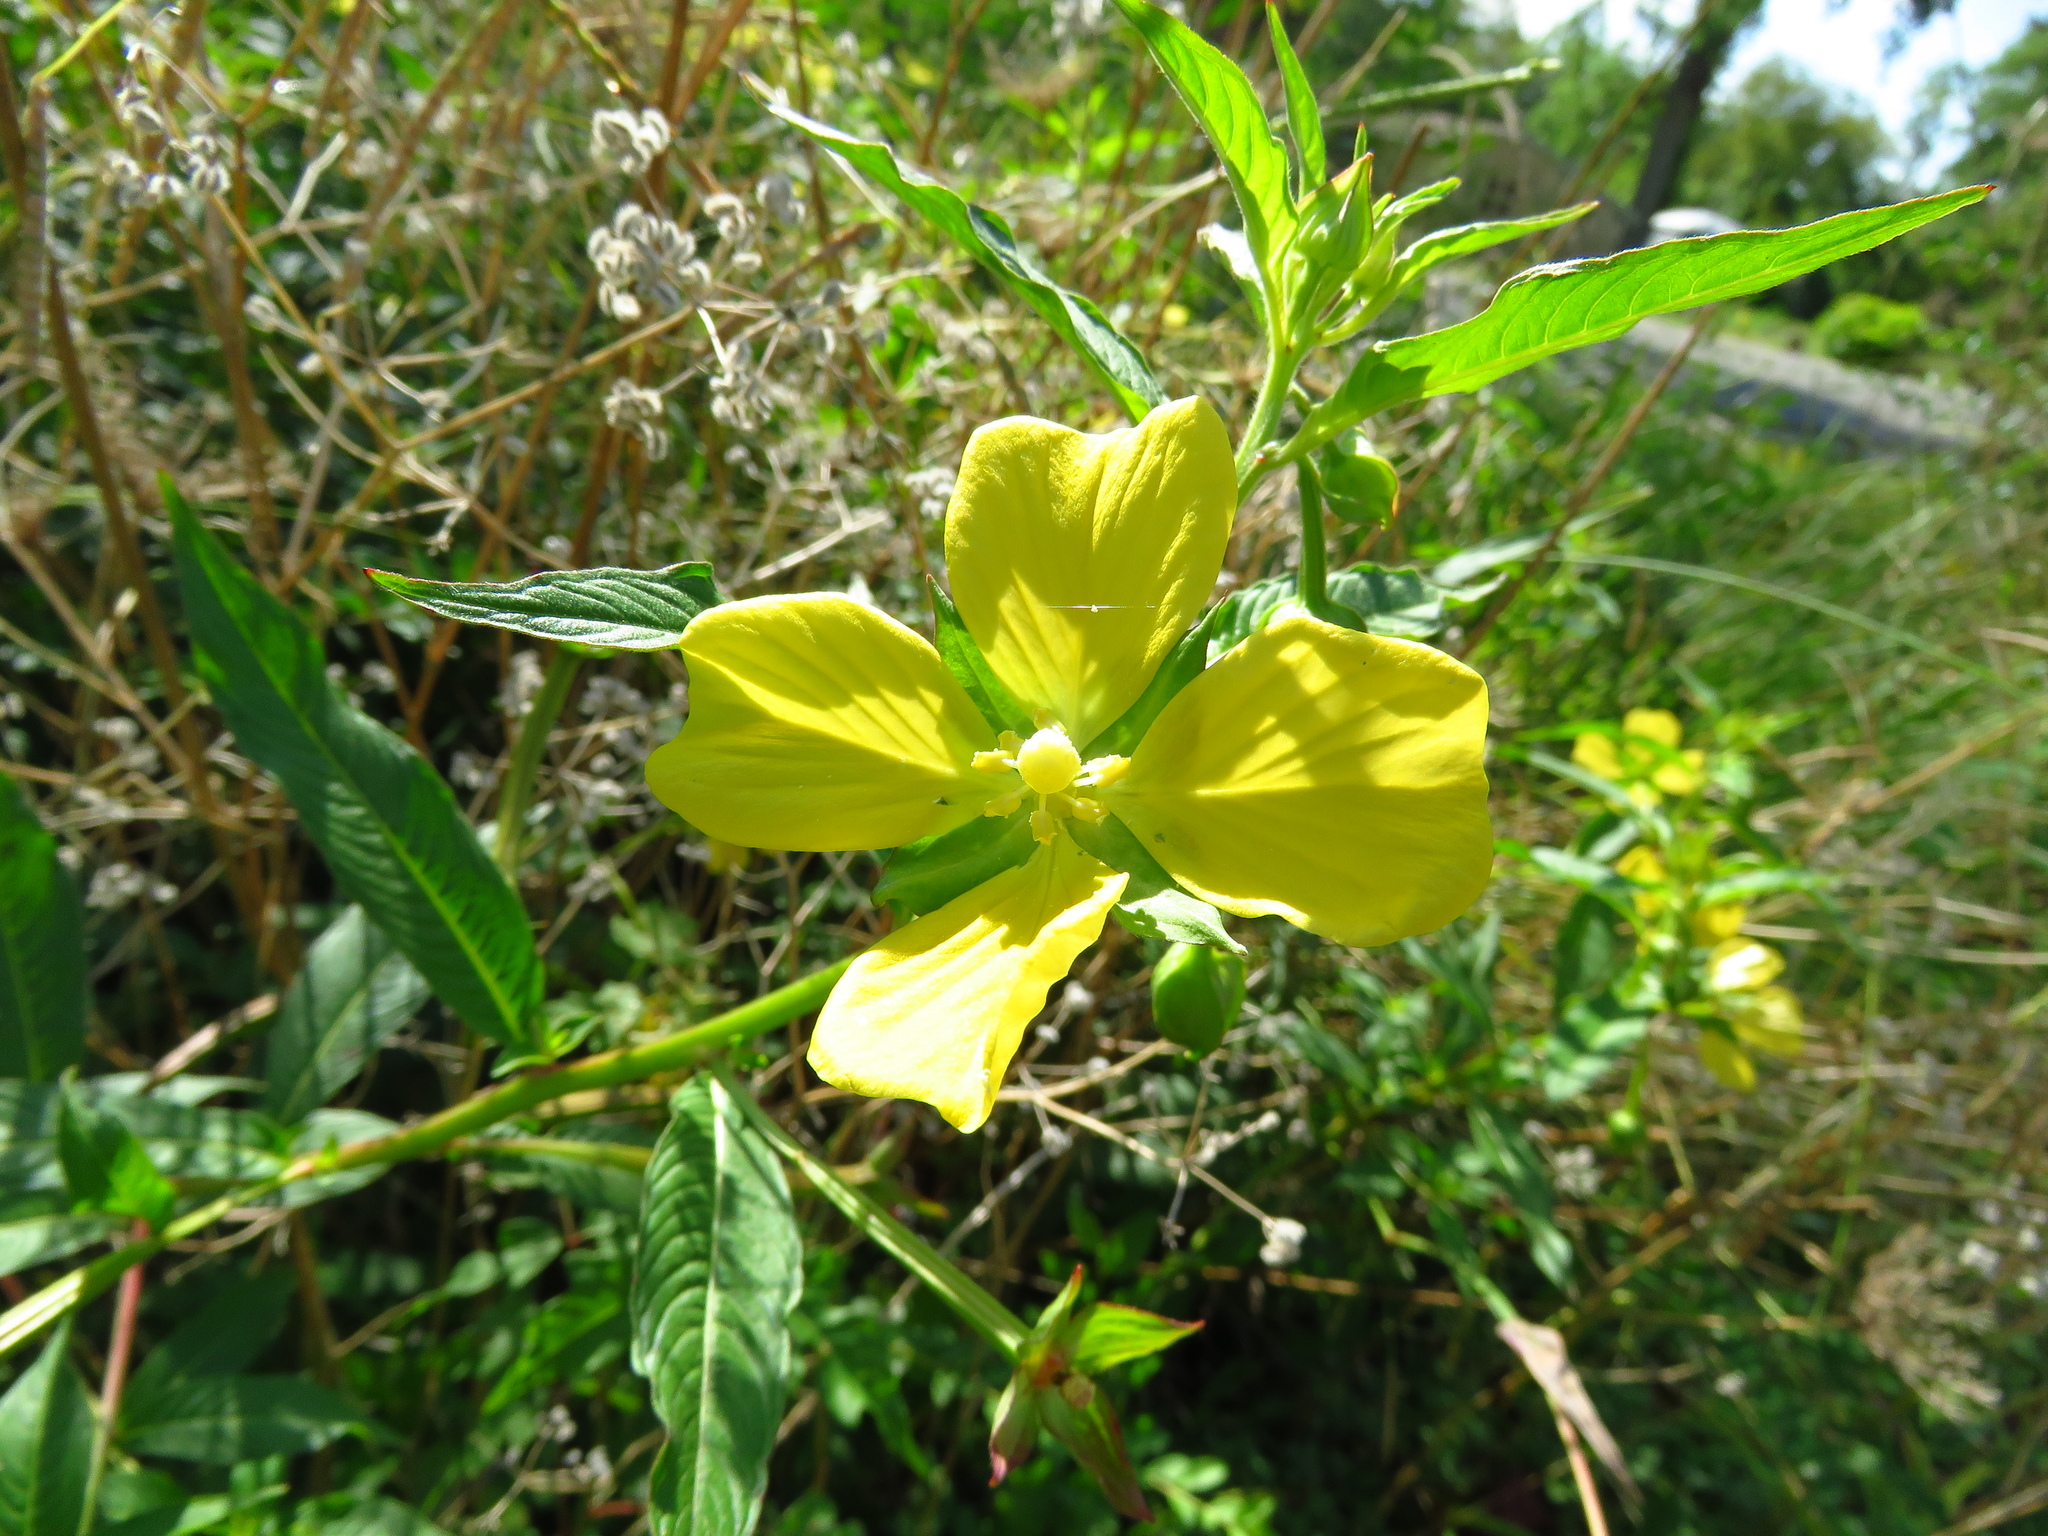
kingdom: Plantae
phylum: Tracheophyta
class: Magnoliopsida
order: Myrtales
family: Onagraceae
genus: Ludwigia
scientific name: Ludwigia octovalvis
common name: Water-primrose
